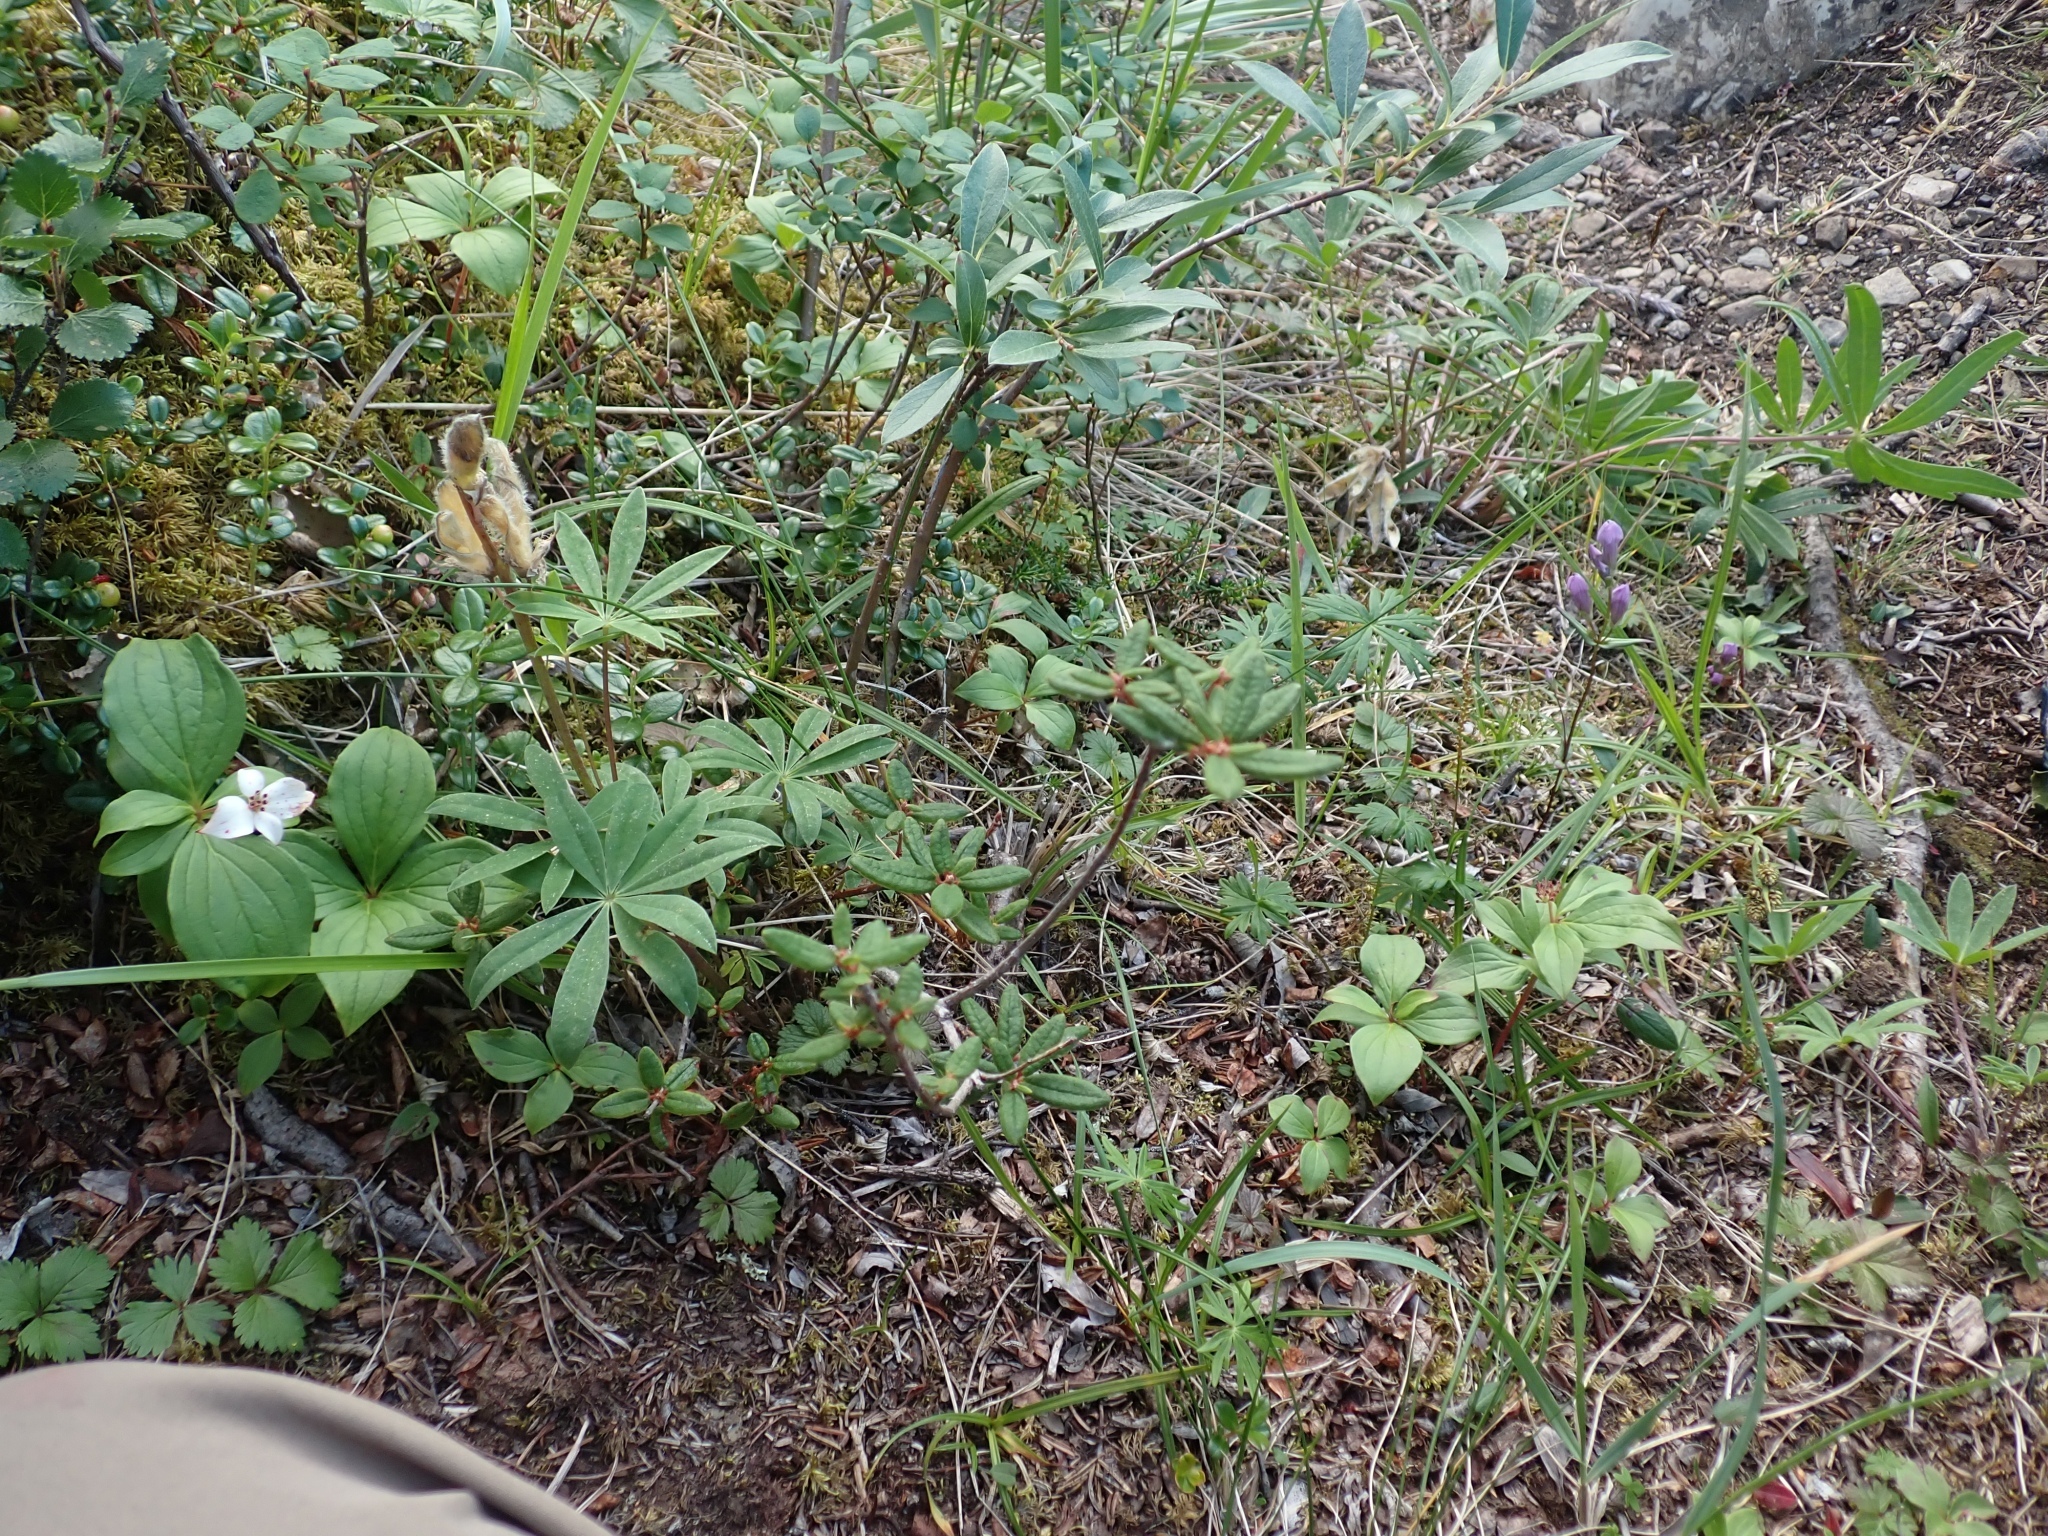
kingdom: Plantae
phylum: Tracheophyta
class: Magnoliopsida
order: Ericales
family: Ericaceae
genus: Rhododendron
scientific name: Rhododendron groenlandicum
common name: Bog labrador tea
